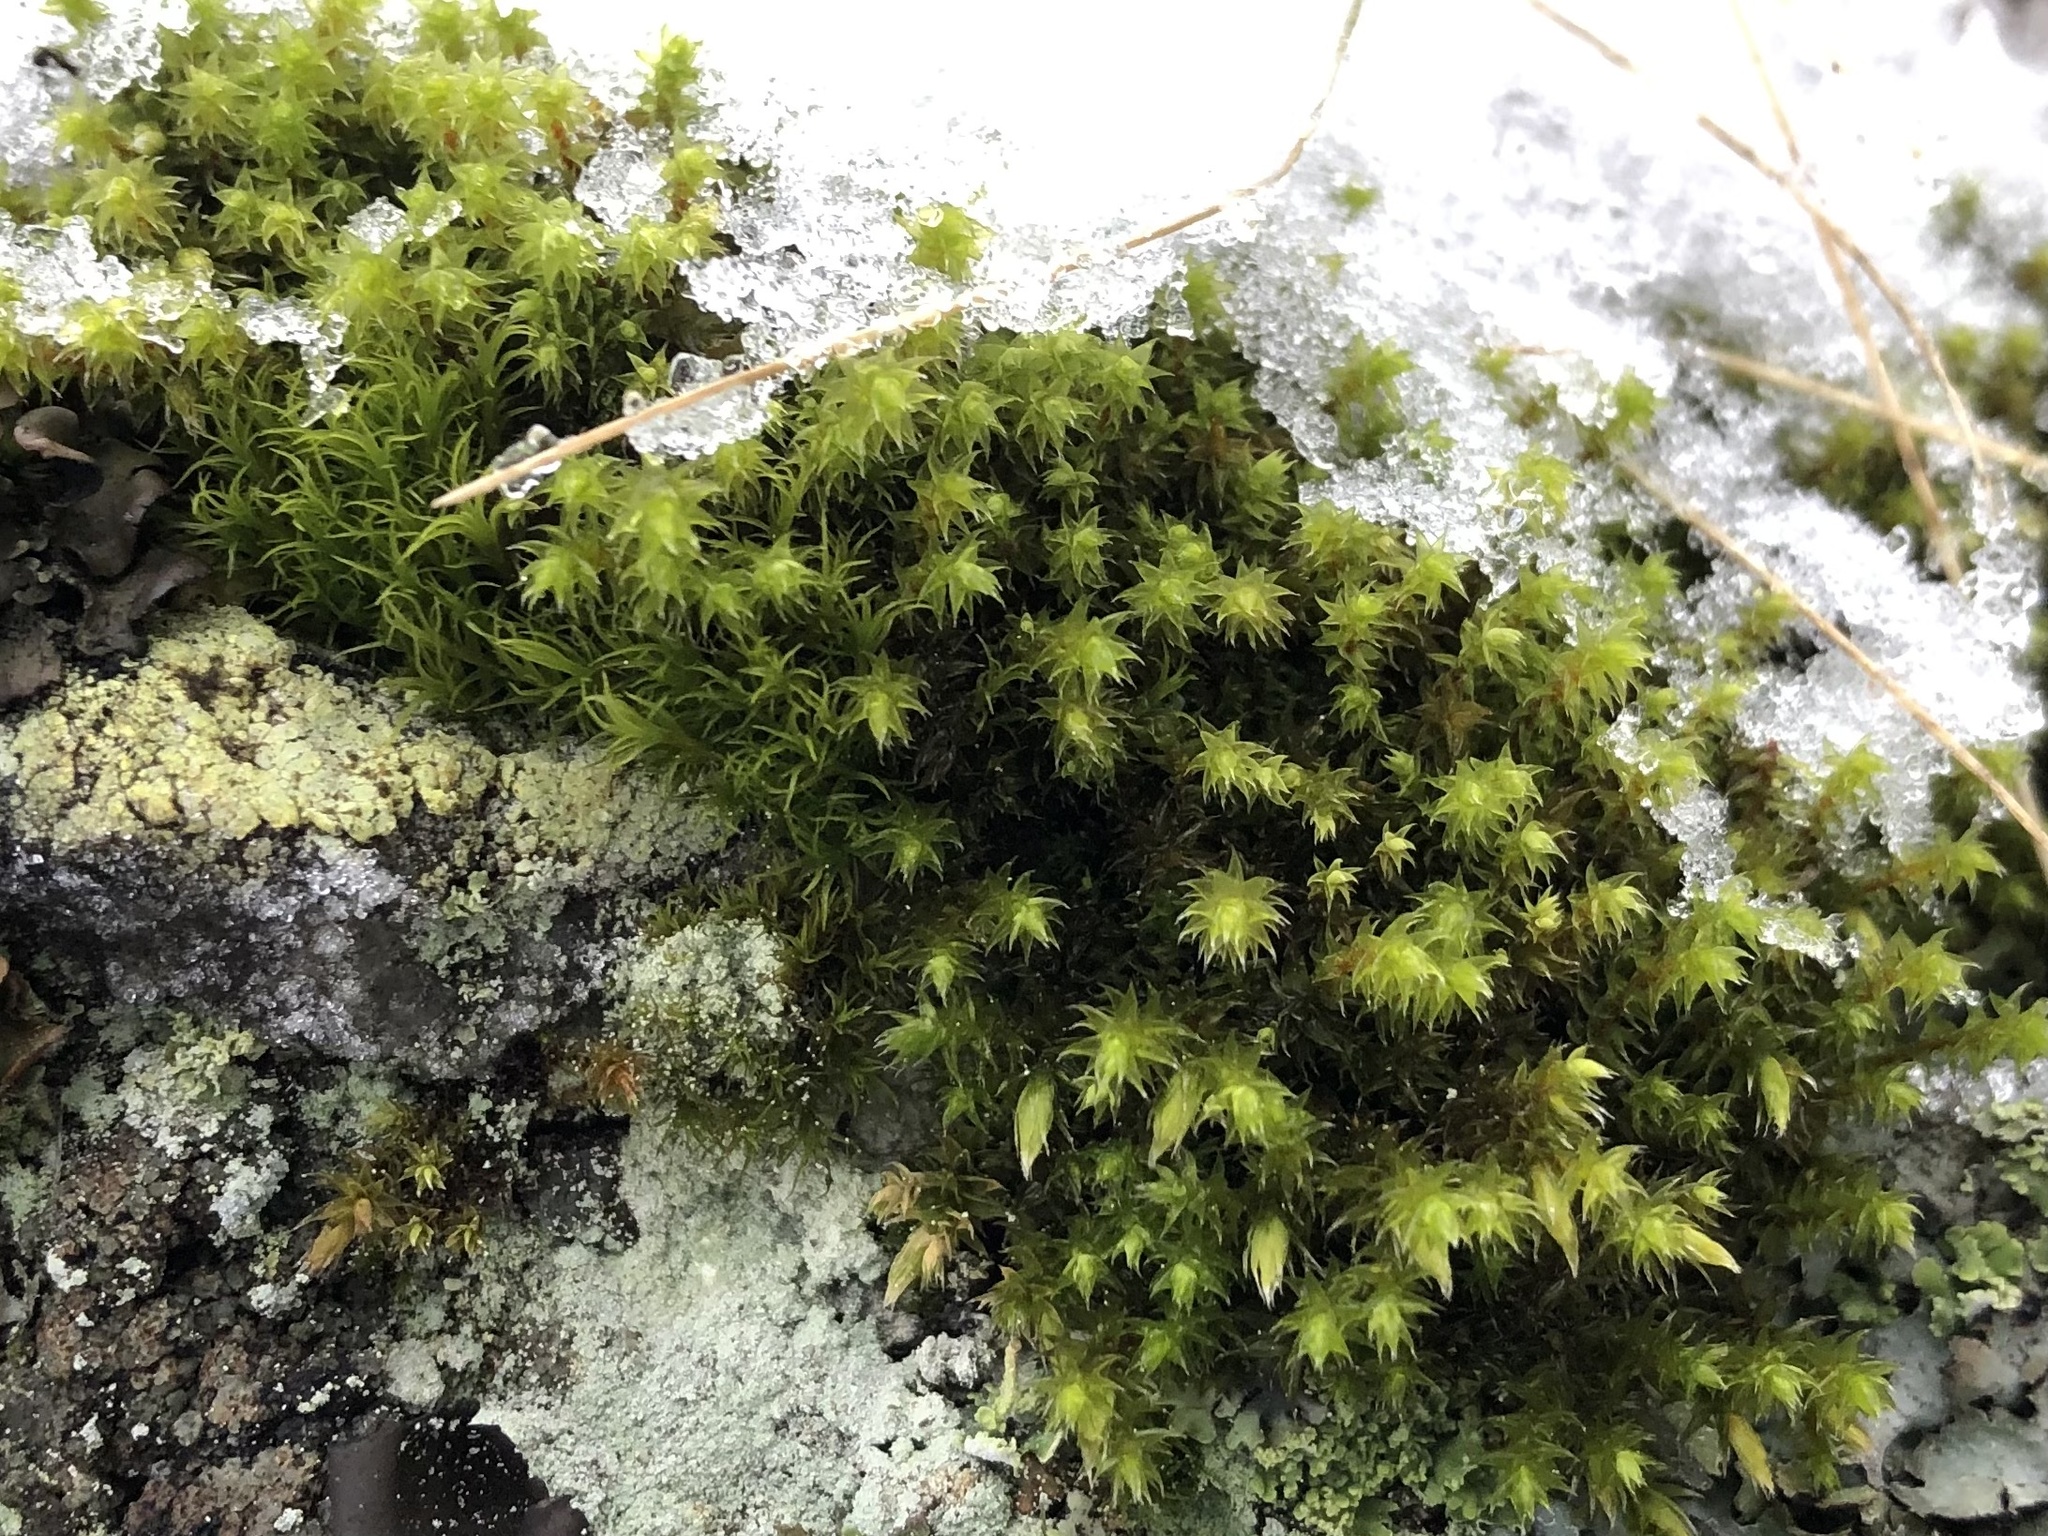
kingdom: Plantae
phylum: Bryophyta
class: Bryopsida
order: Hedwigiales
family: Hedwigiaceae
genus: Hedwigia
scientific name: Hedwigia ciliata
